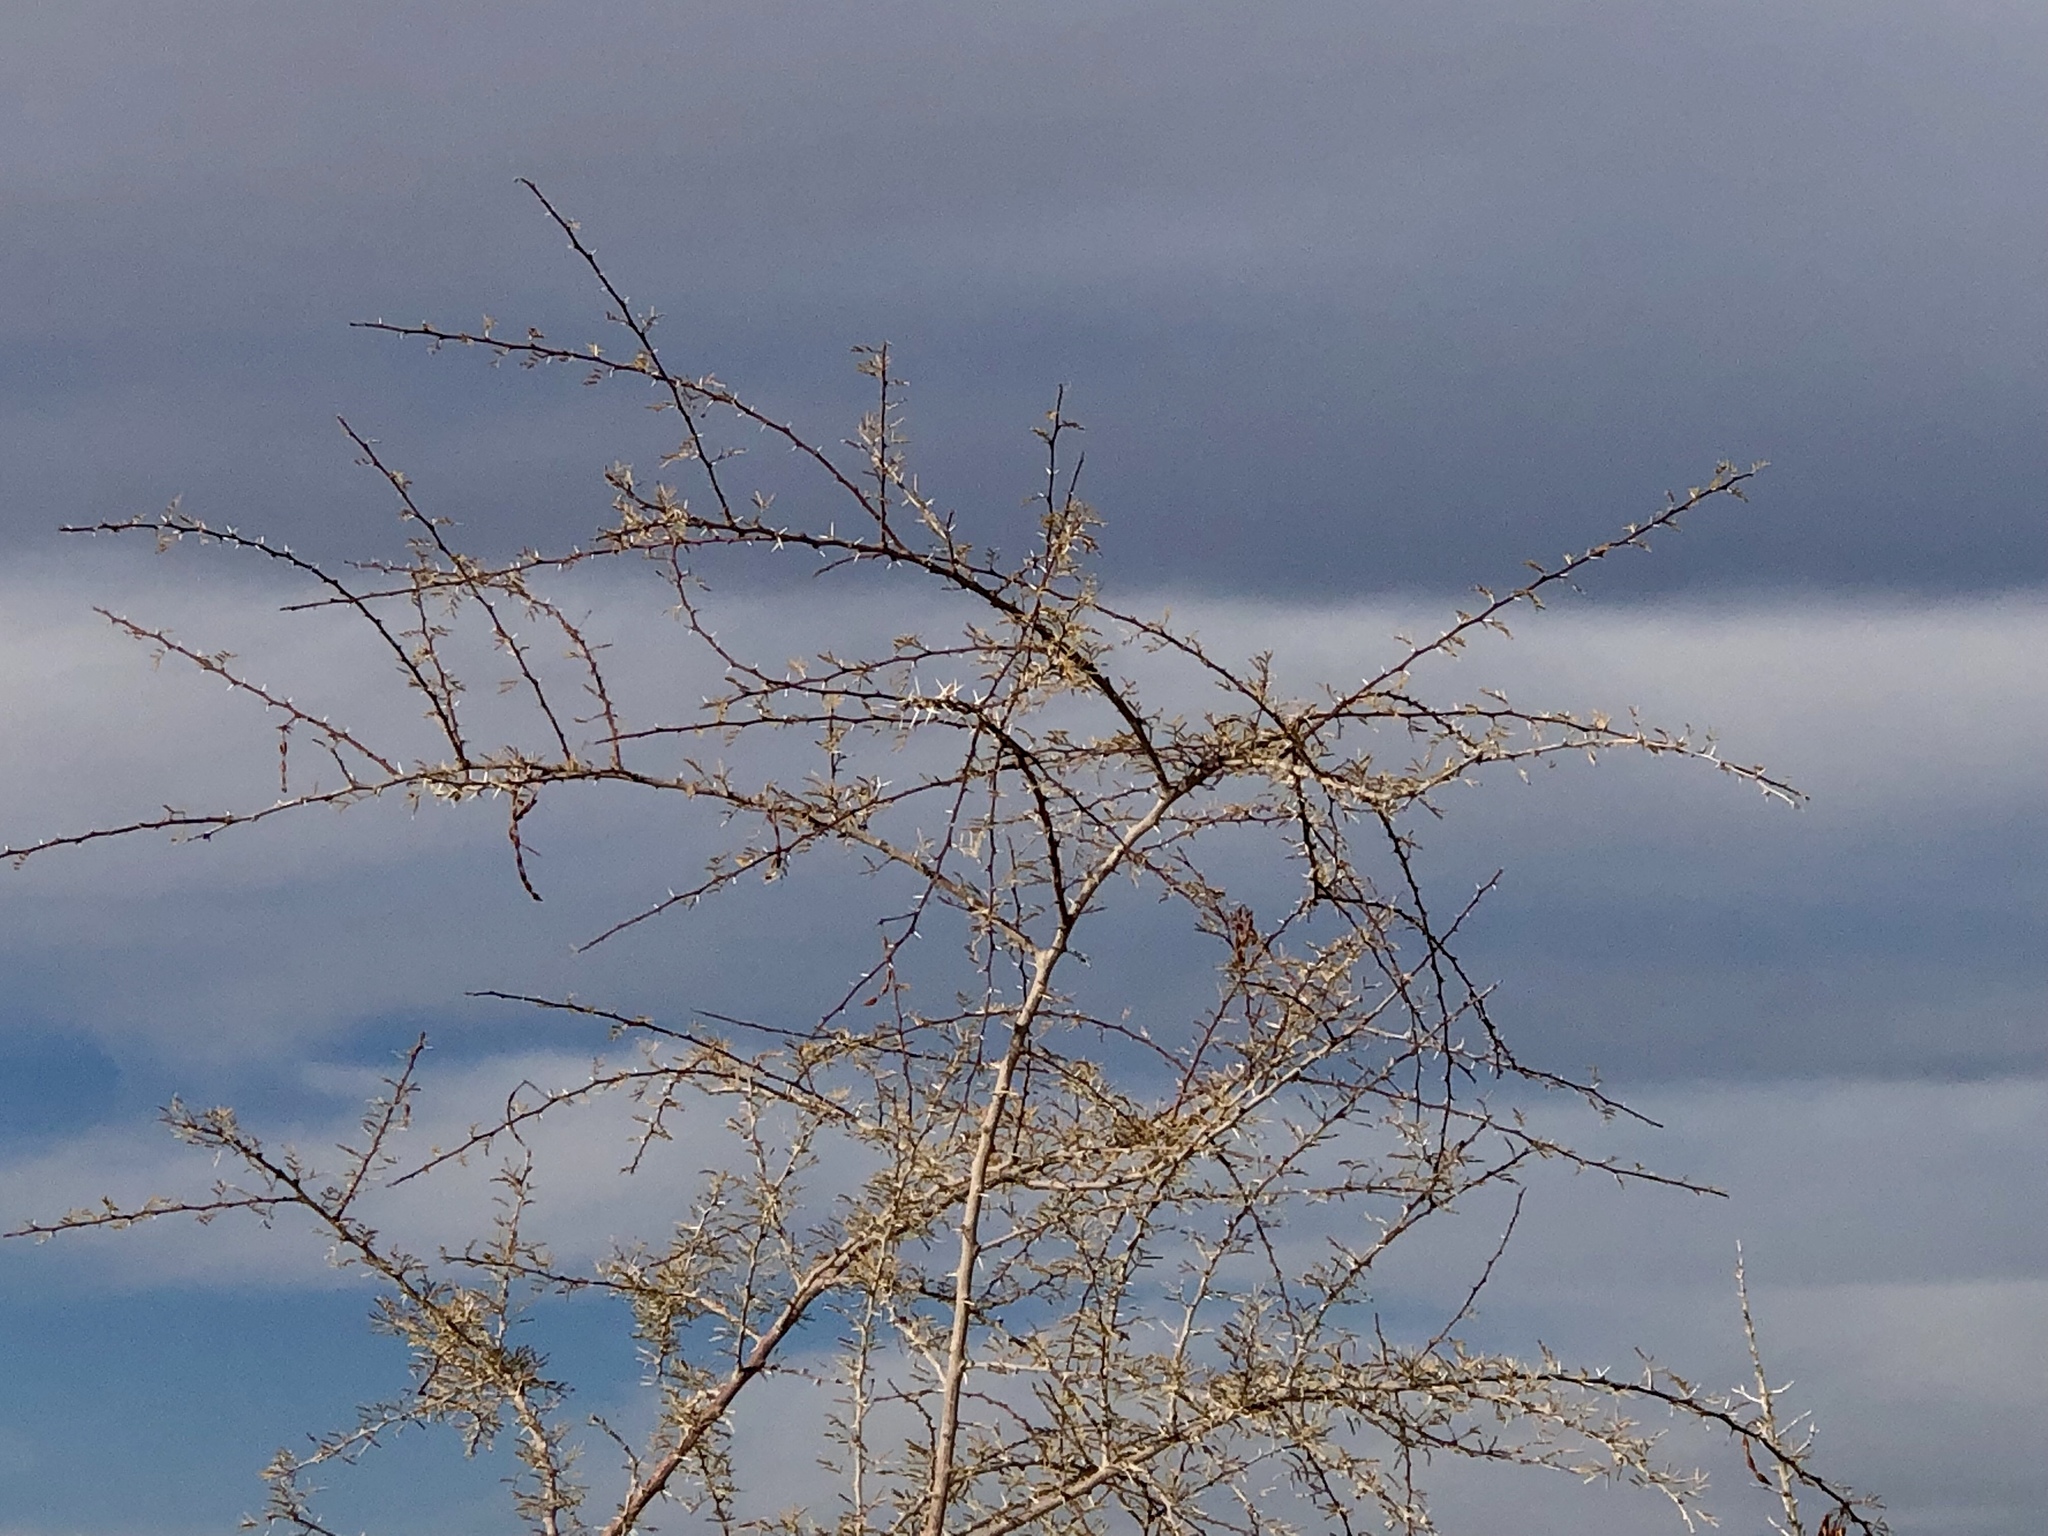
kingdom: Plantae
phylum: Tracheophyta
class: Magnoliopsida
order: Fabales
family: Fabaceae
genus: Vachellia
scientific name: Vachellia constricta
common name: Mescat acacia
